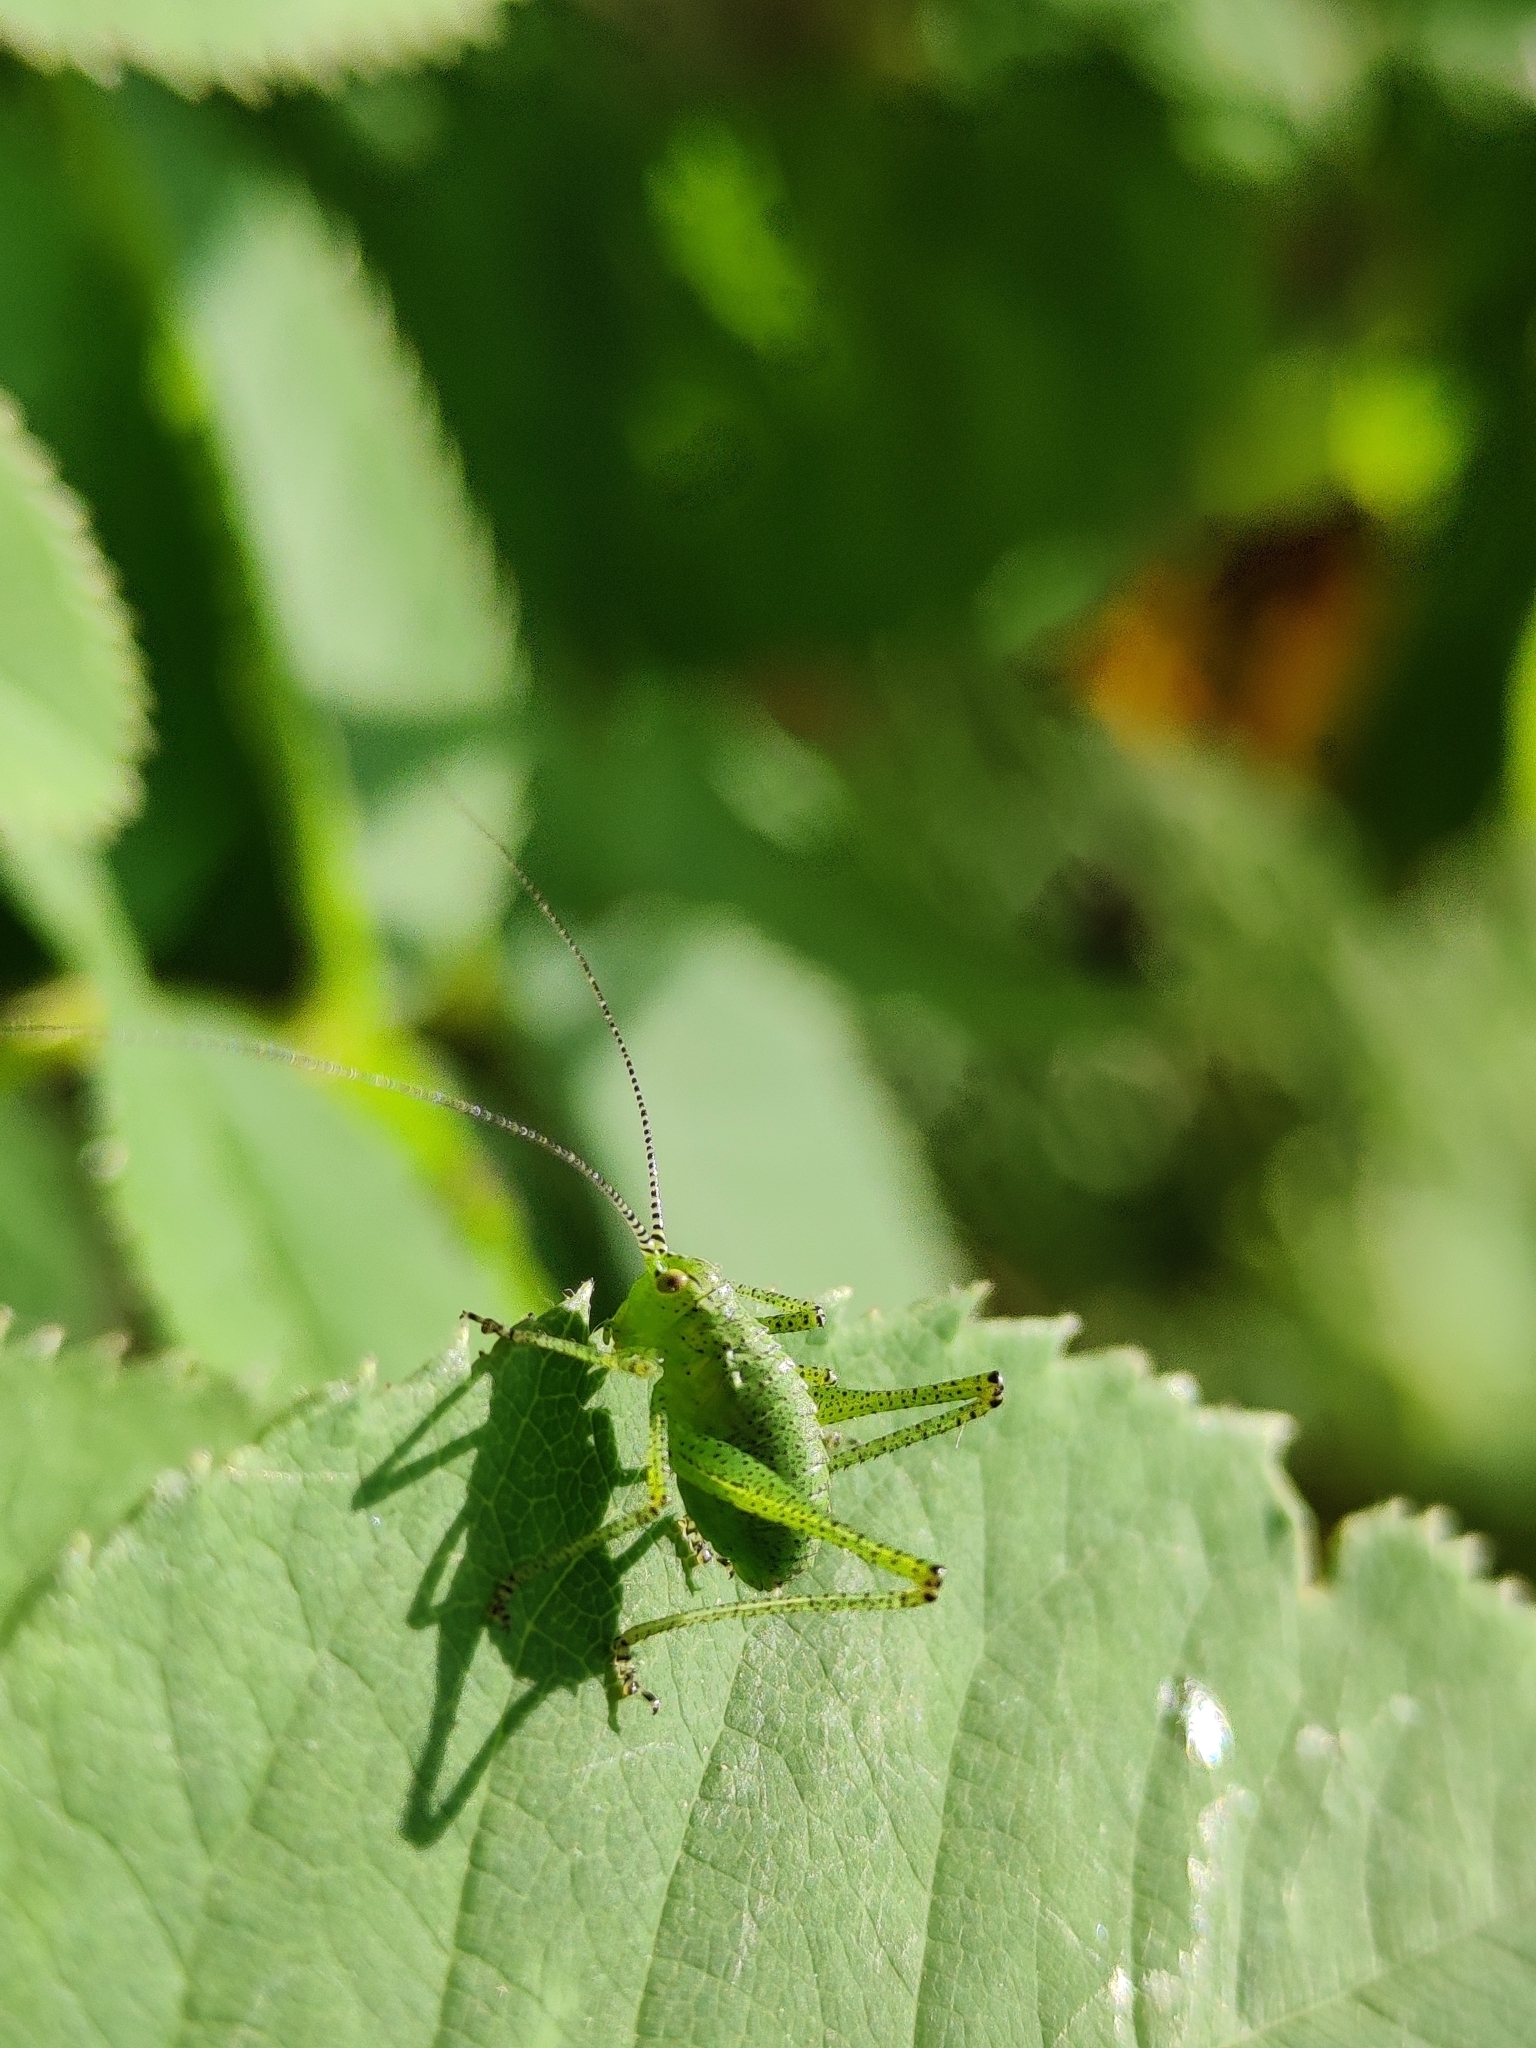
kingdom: Animalia
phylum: Arthropoda
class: Insecta
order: Orthoptera
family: Tettigoniidae
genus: Leptophyes
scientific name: Leptophyes punctatissima
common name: Speckled bush-cricket
